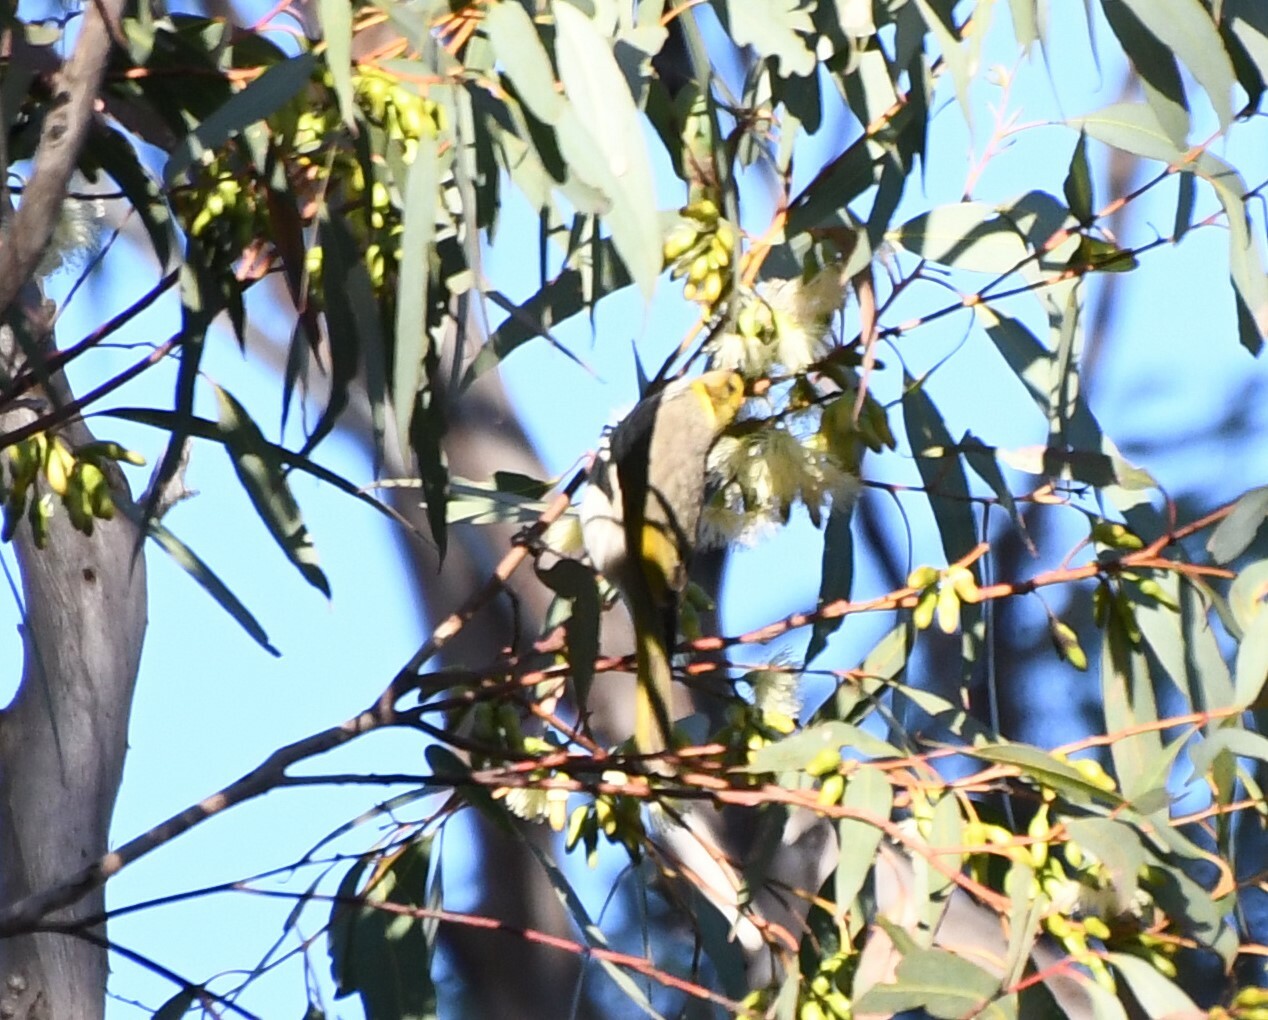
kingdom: Animalia
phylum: Chordata
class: Aves
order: Passeriformes
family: Meliphagidae
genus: Ptilotula
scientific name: Ptilotula ornata
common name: Yellow-plumed honeyeater
